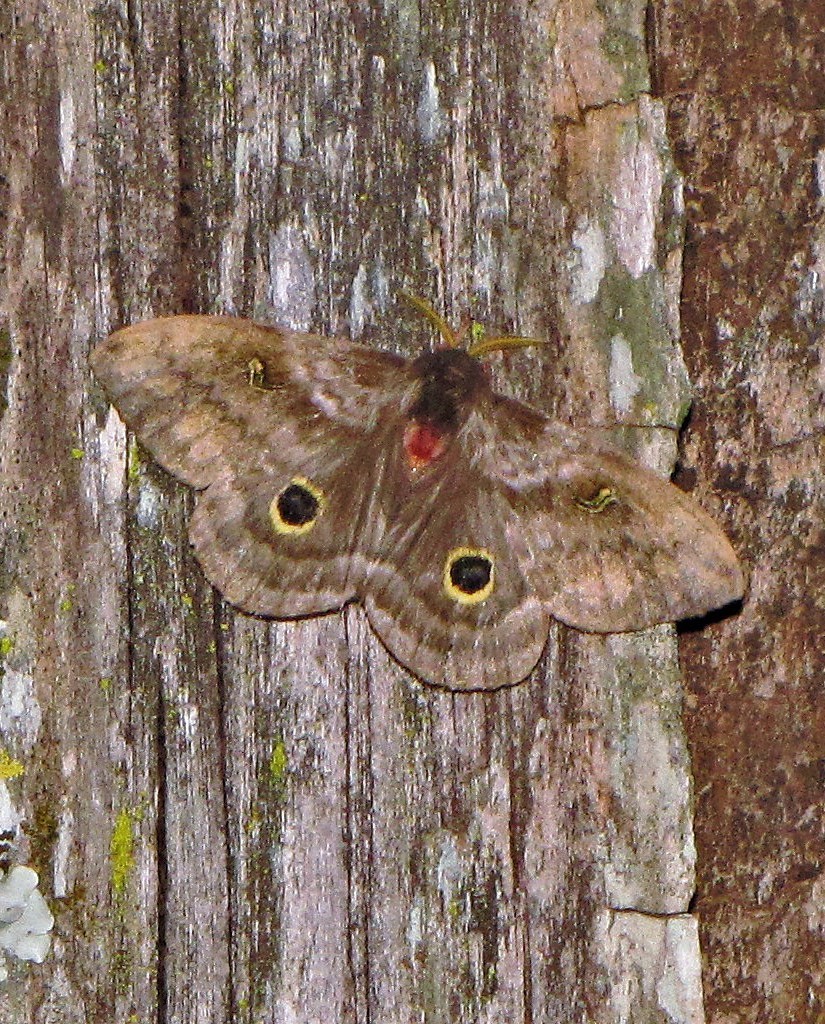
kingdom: Animalia
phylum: Arthropoda
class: Insecta
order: Lepidoptera
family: Saturniidae
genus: Hidripa
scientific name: Hidripa taglia
